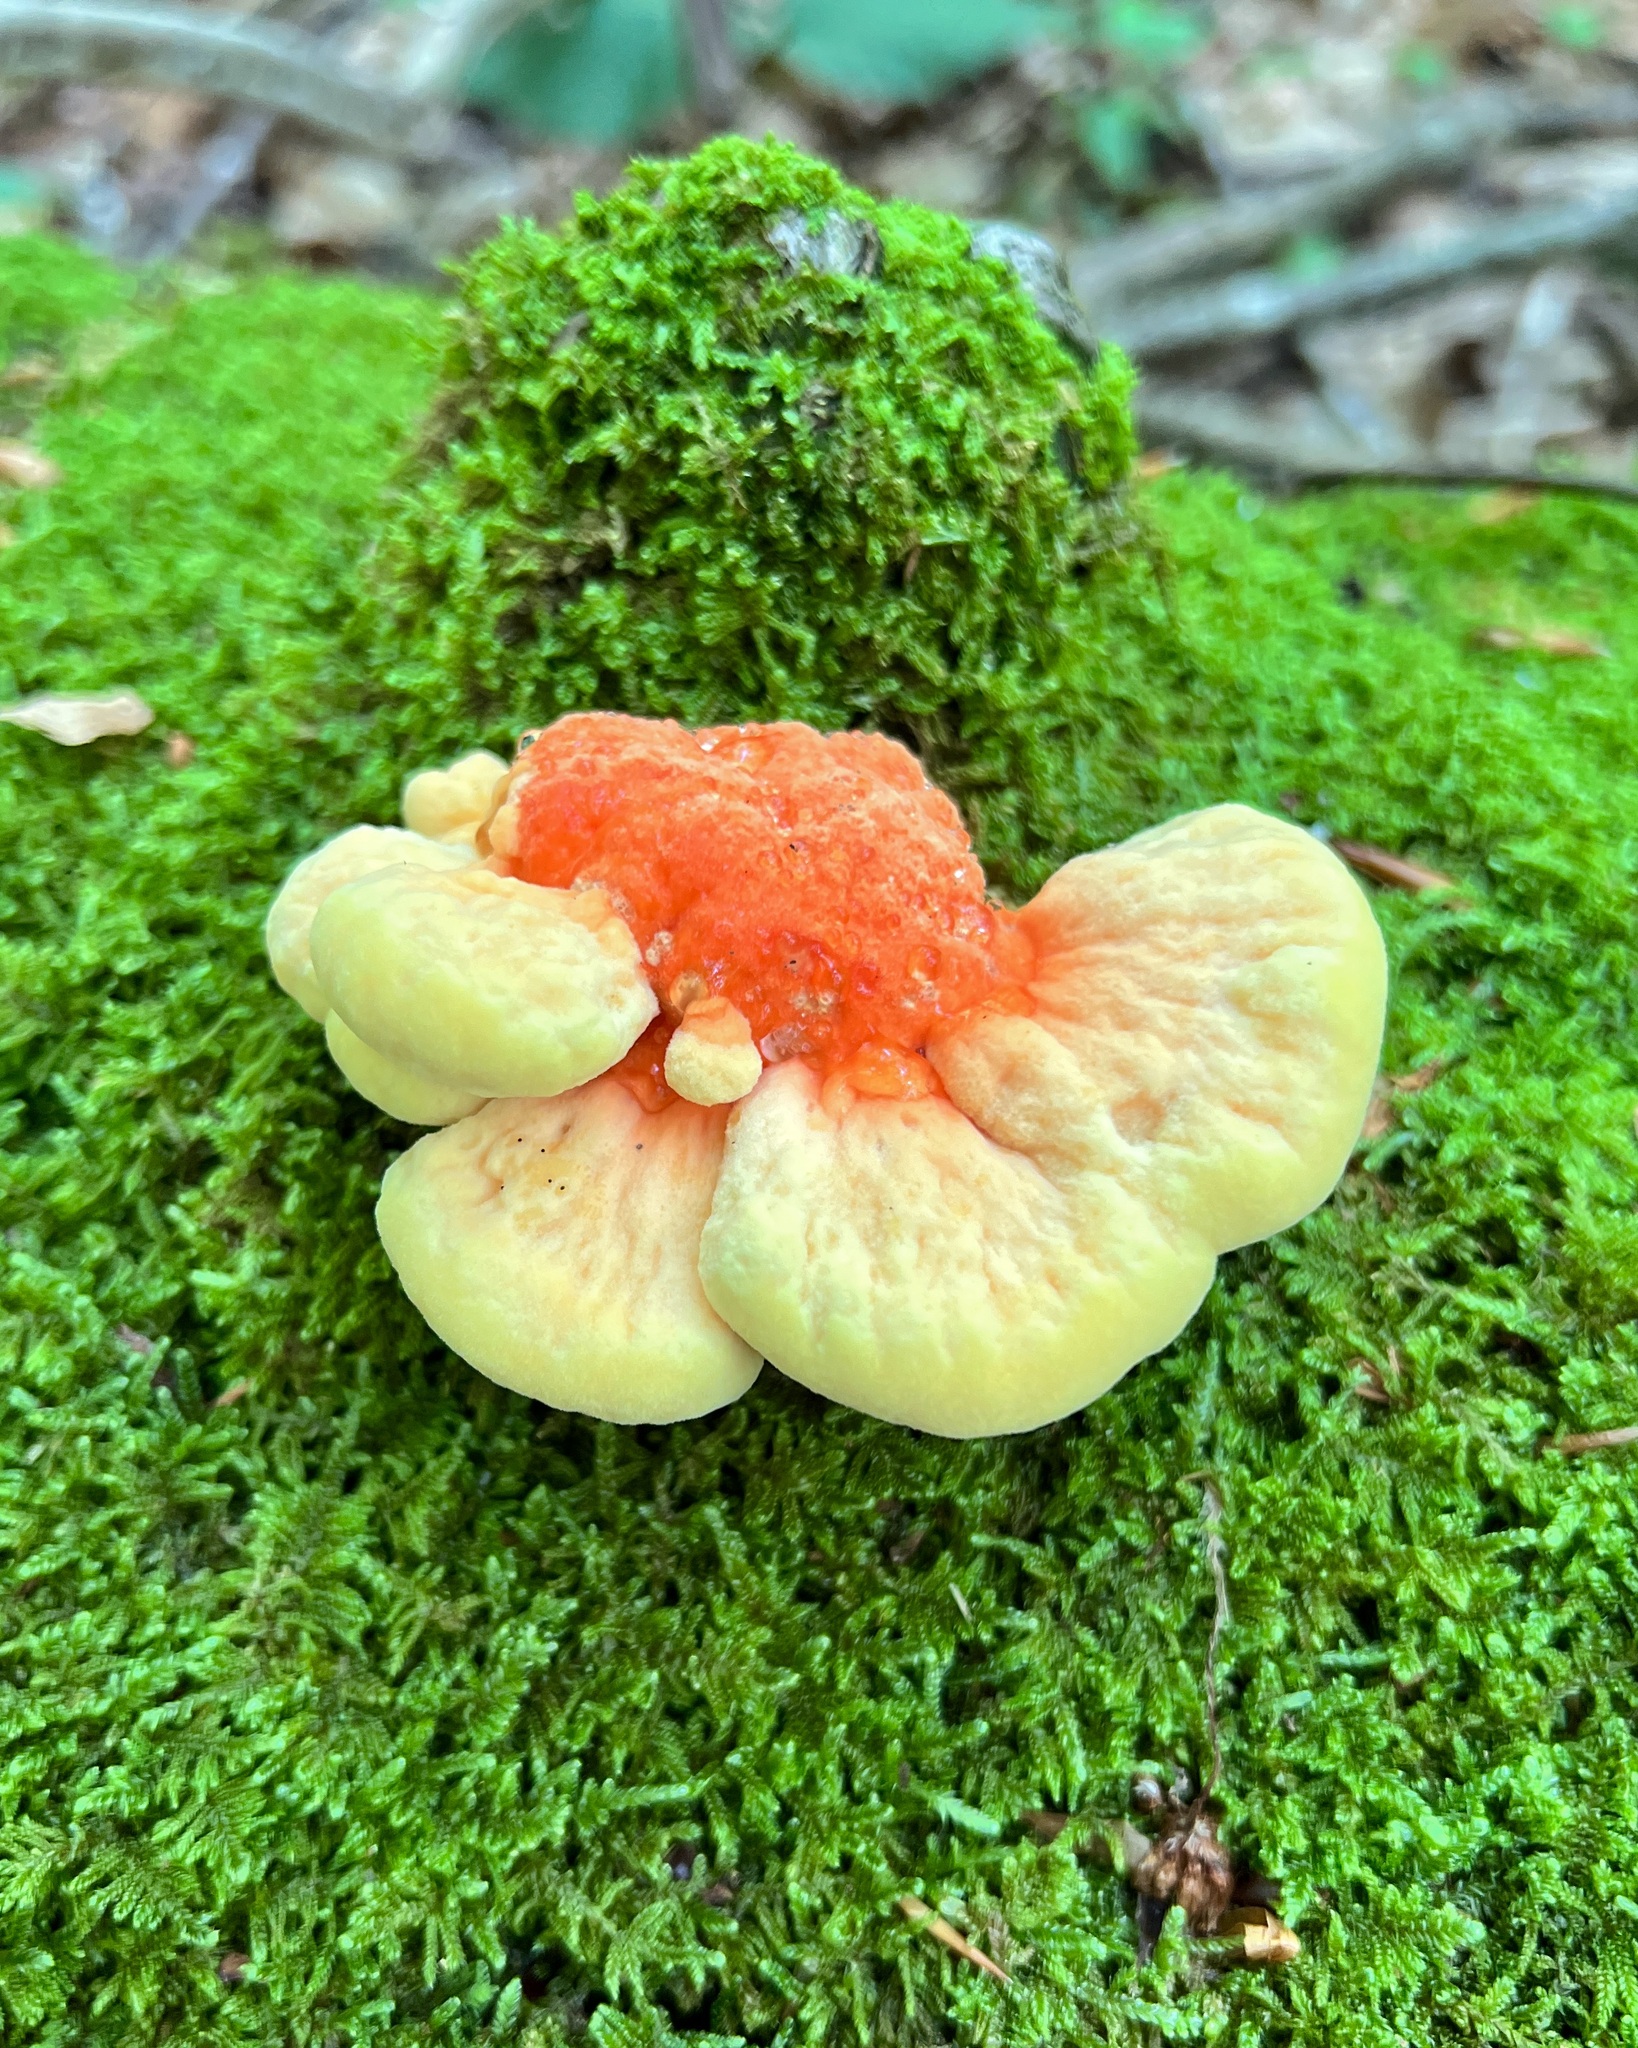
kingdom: Fungi
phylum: Basidiomycota
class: Agaricomycetes
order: Polyporales
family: Laetiporaceae
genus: Laetiporus
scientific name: Laetiporus sulphureus
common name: Chicken of the woods
